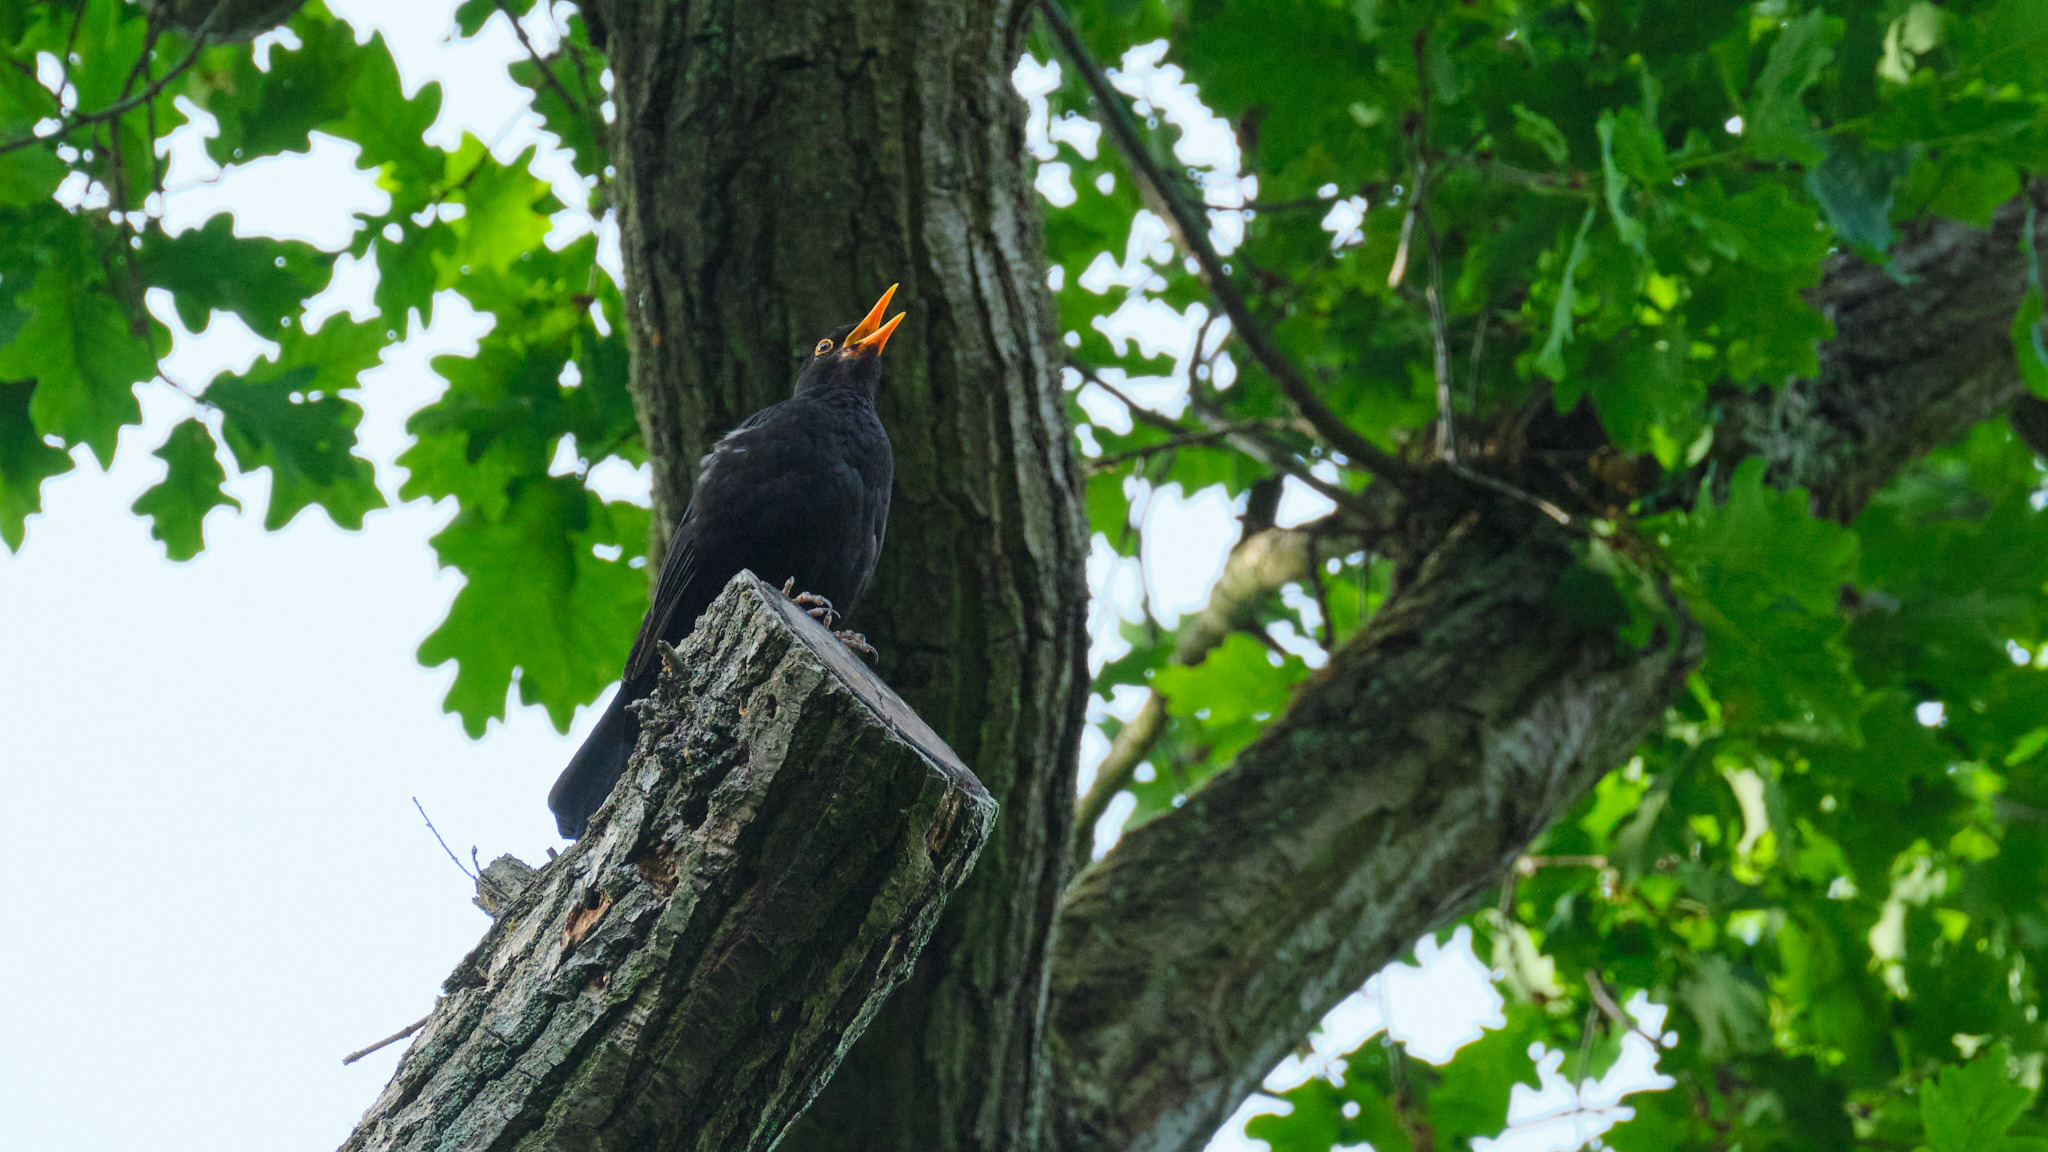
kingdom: Animalia
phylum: Chordata
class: Aves
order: Passeriformes
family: Turdidae
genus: Turdus
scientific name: Turdus merula
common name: Common blackbird
